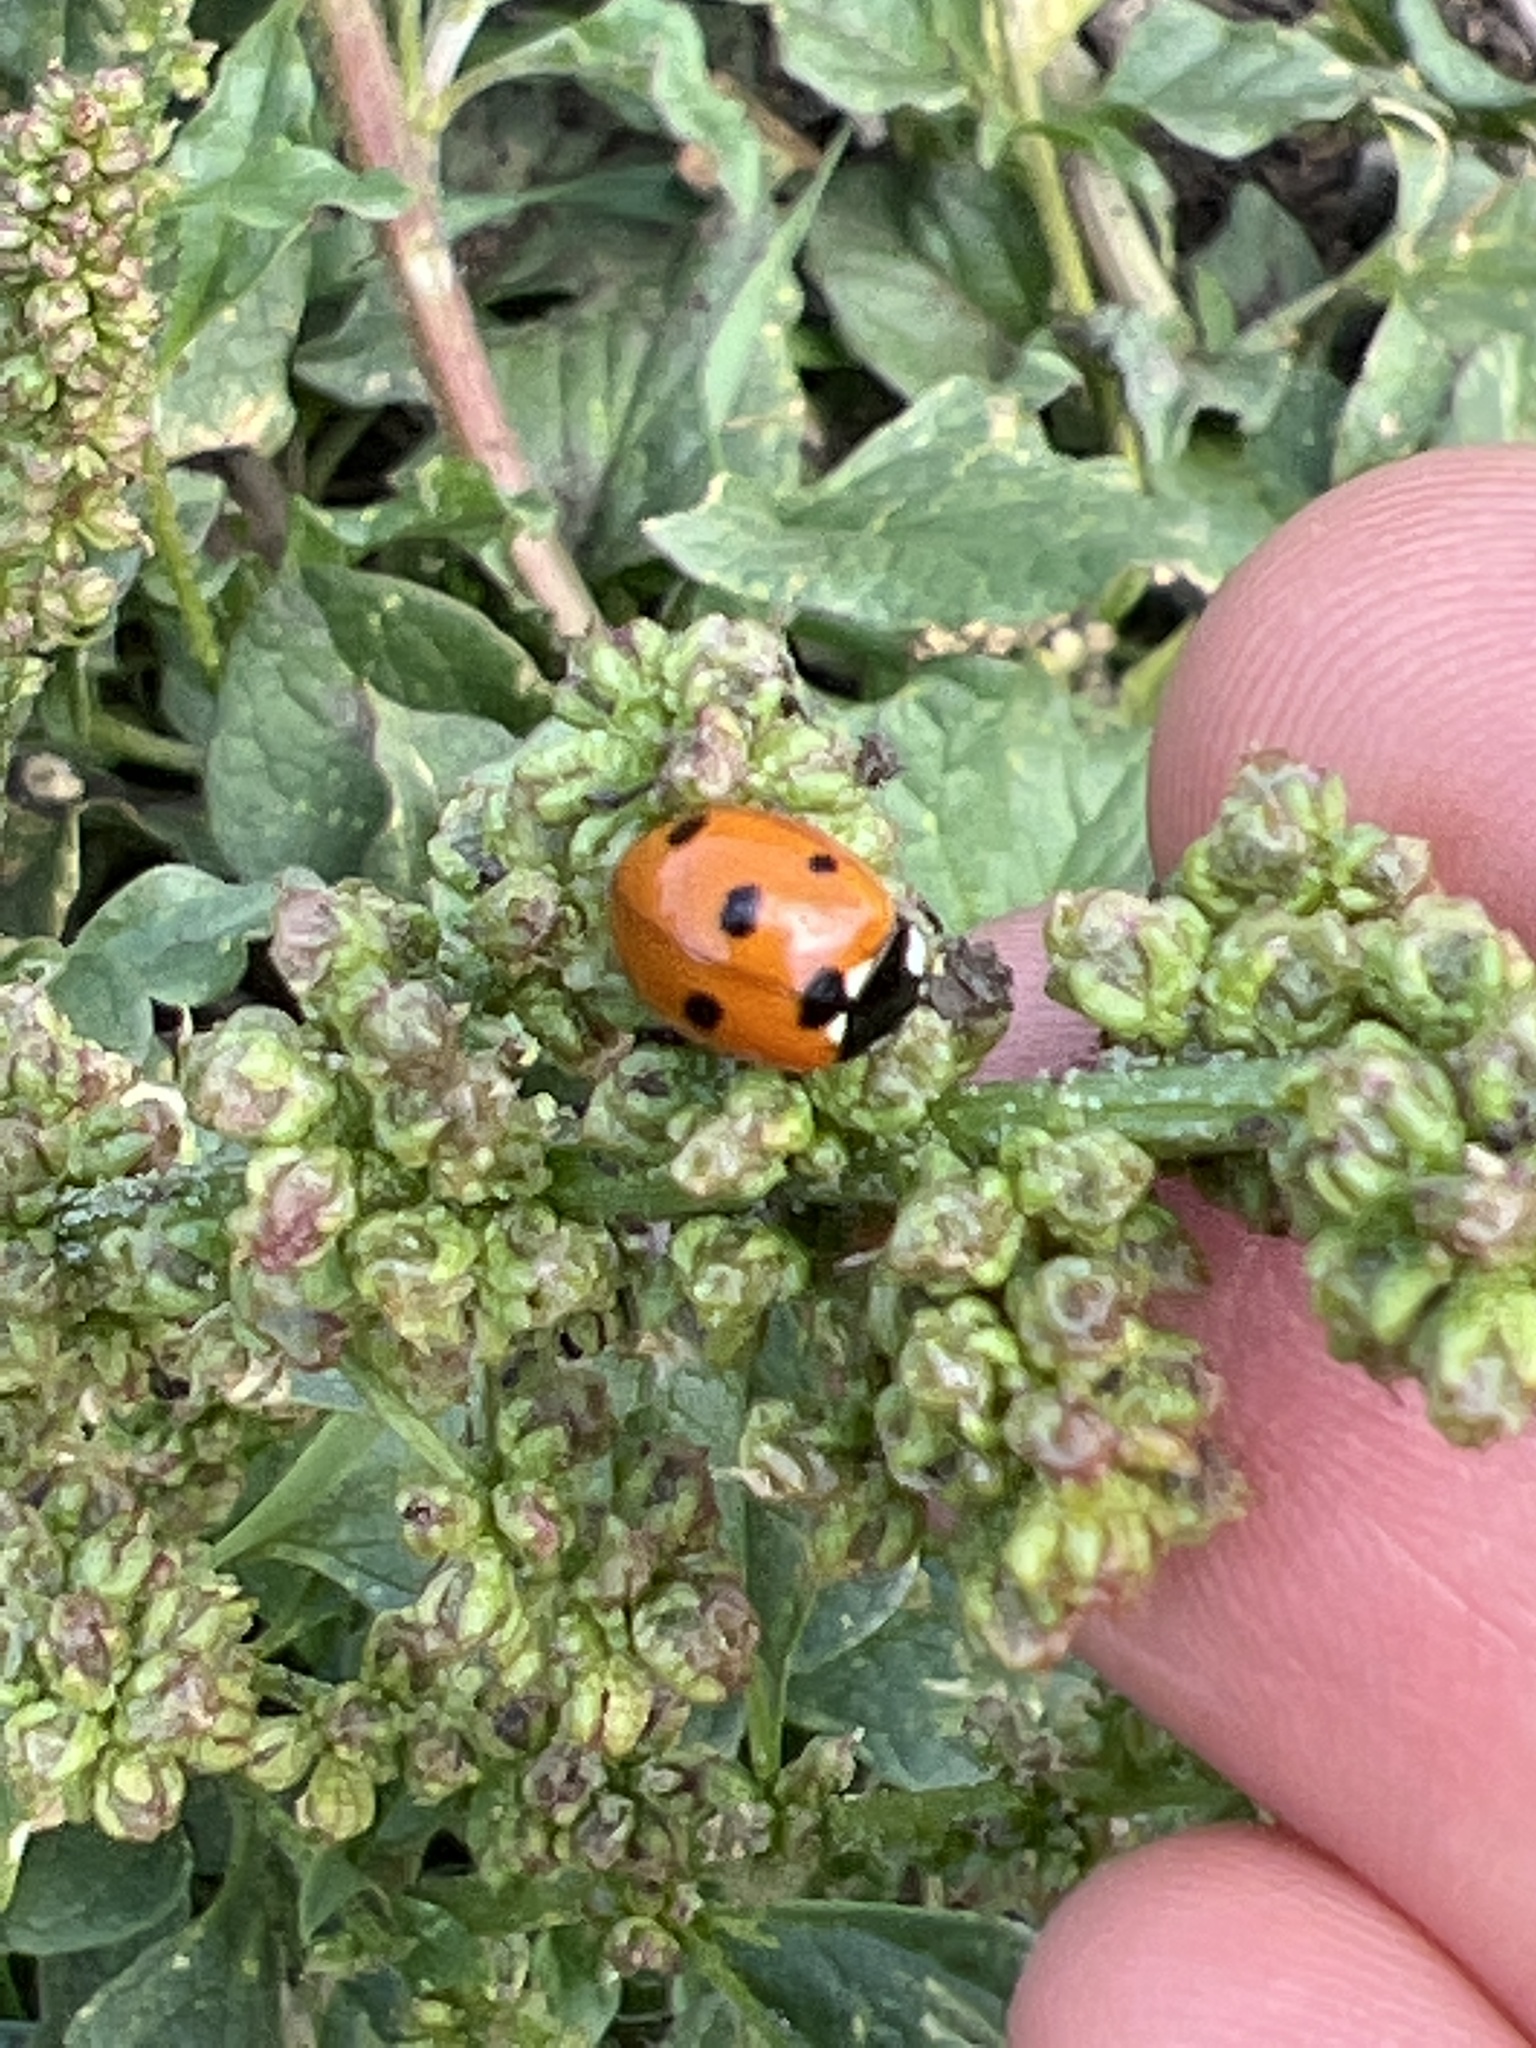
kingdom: Animalia
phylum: Arthropoda
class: Insecta
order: Coleoptera
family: Coccinellidae
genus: Coccinella
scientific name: Coccinella septempunctata
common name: Sevenspotted lady beetle
